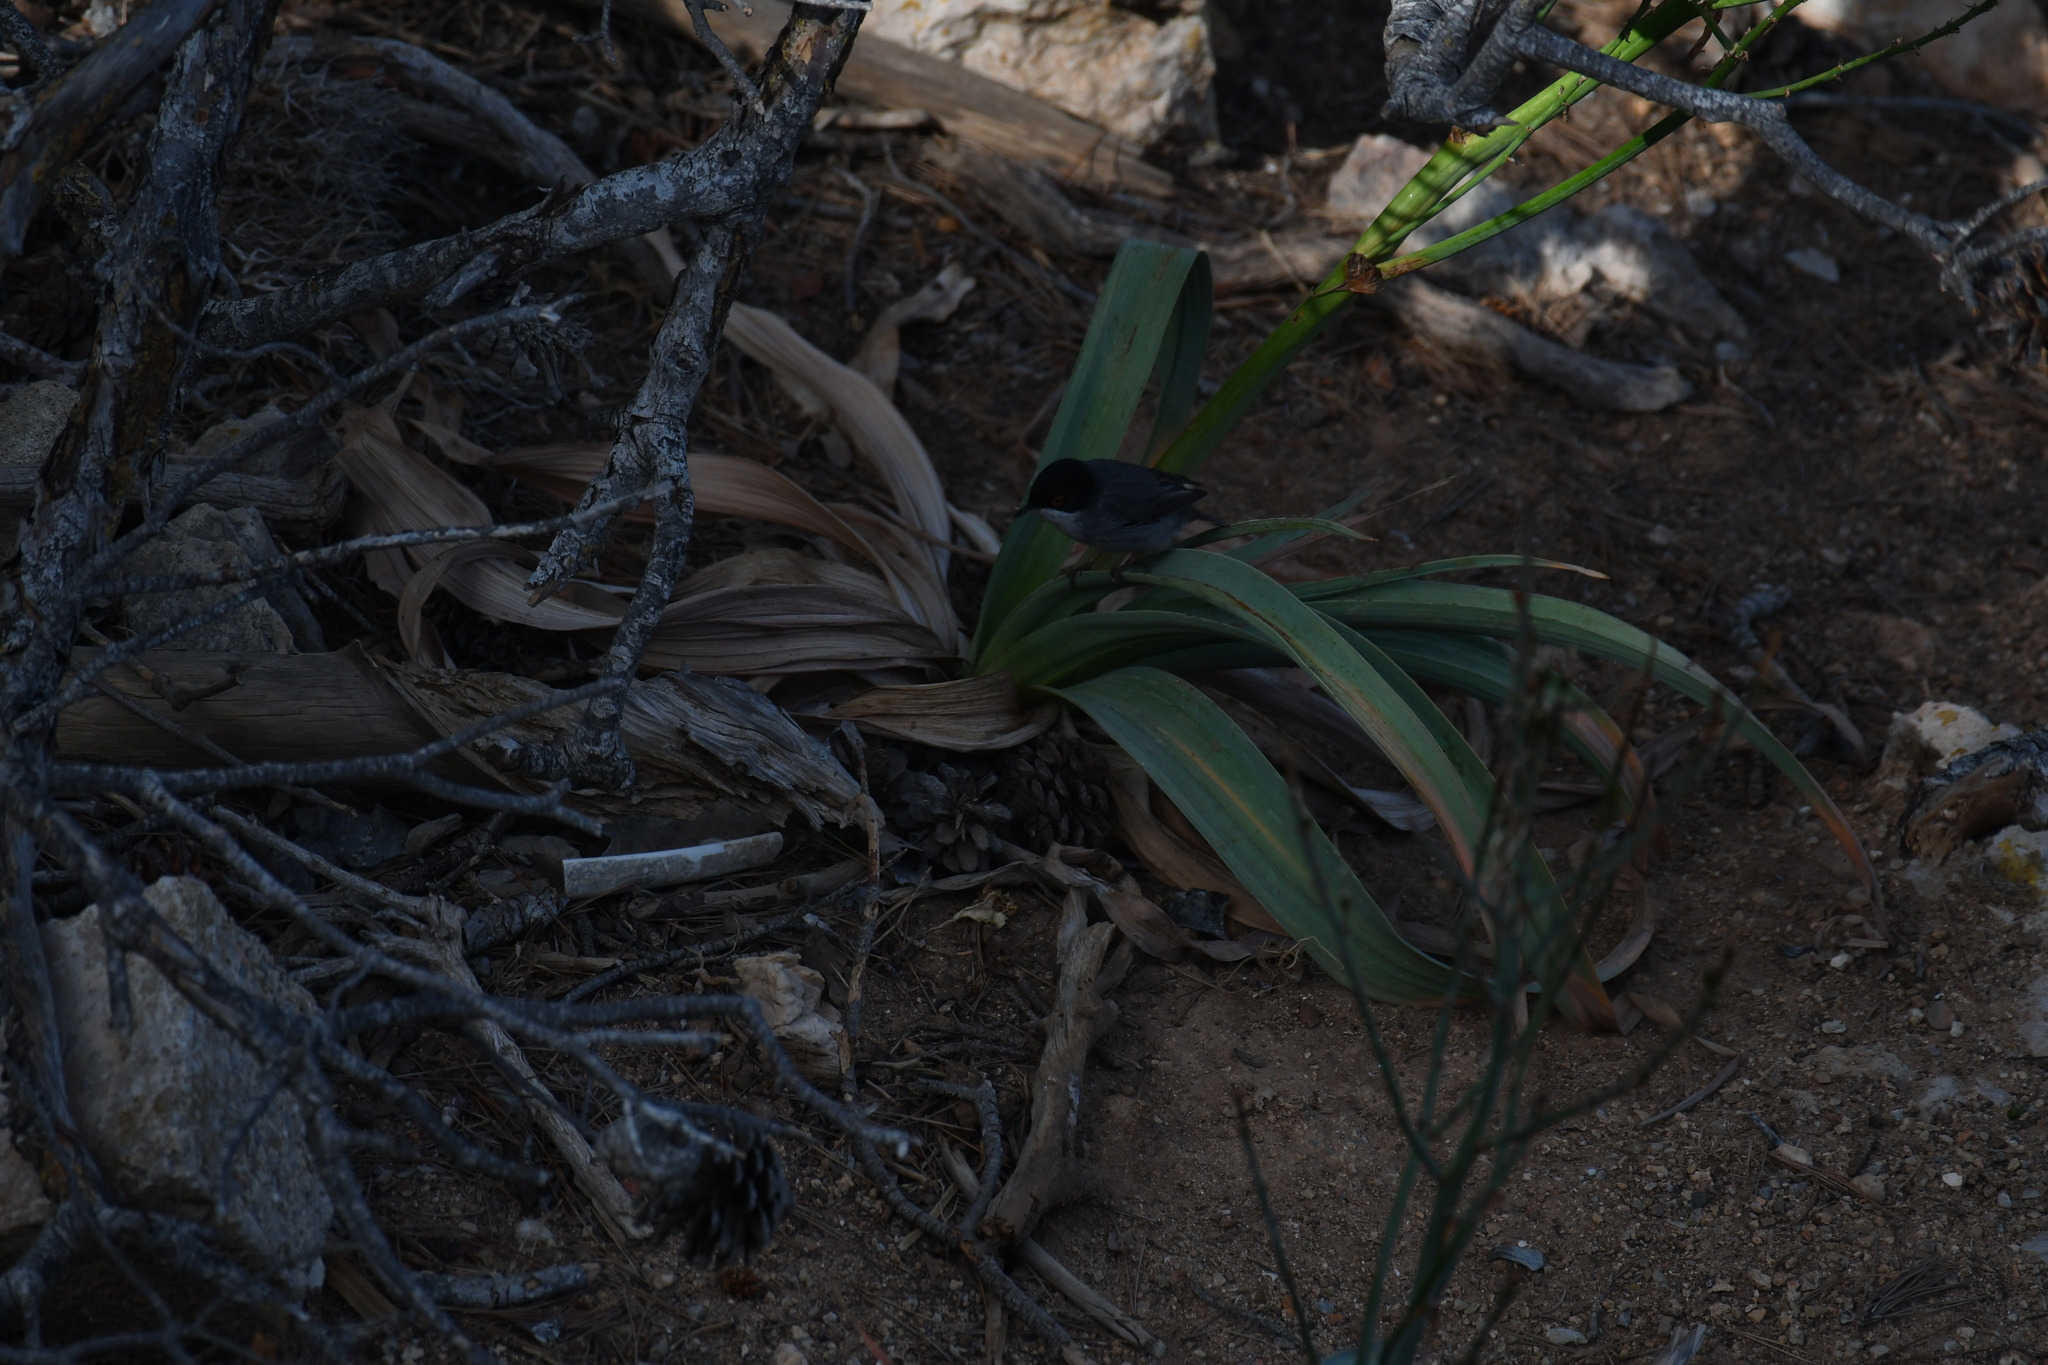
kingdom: Animalia
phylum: Chordata
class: Aves
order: Passeriformes
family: Sylviidae
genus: Curruca
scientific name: Curruca melanocephala
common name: Sardinian warbler
